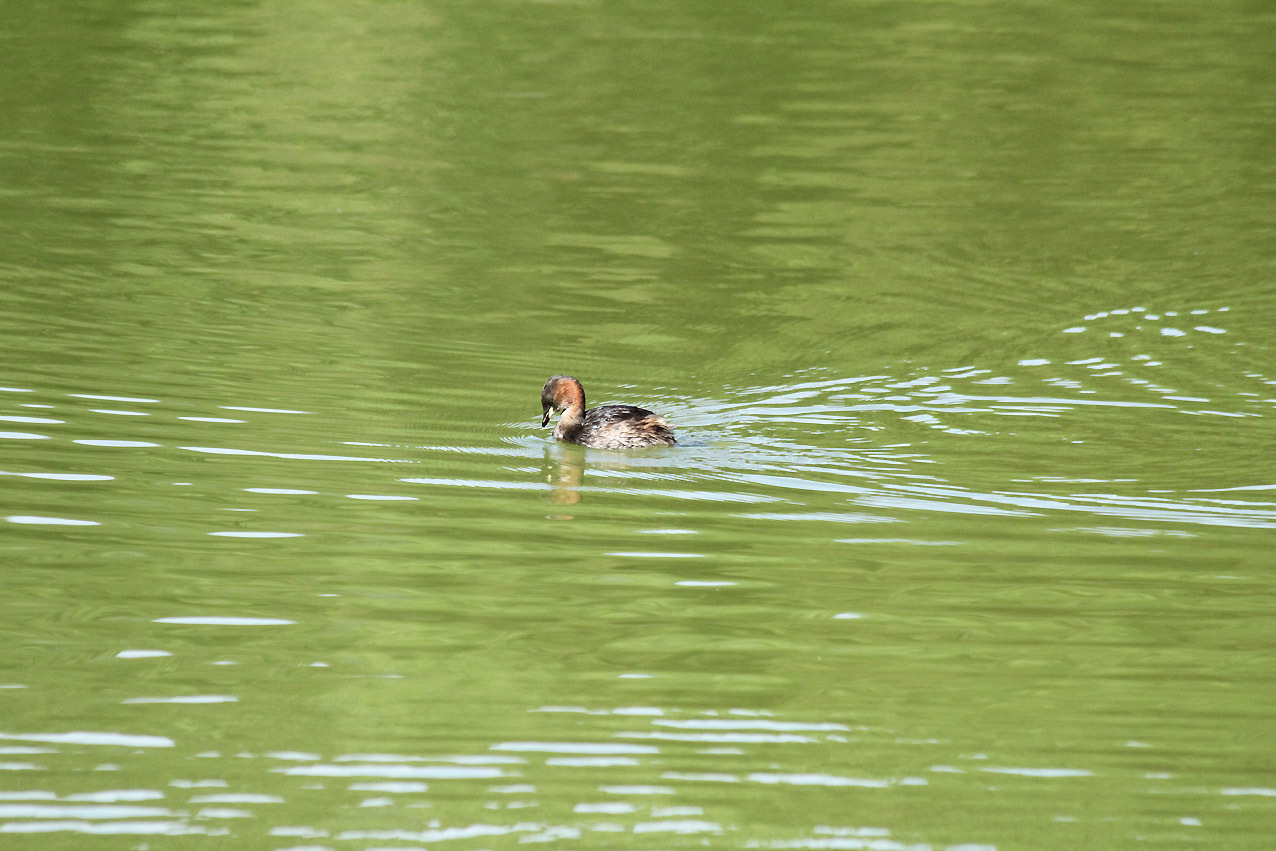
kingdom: Animalia
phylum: Chordata
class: Aves
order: Podicipediformes
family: Podicipedidae
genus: Tachybaptus
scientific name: Tachybaptus ruficollis
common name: Little grebe
